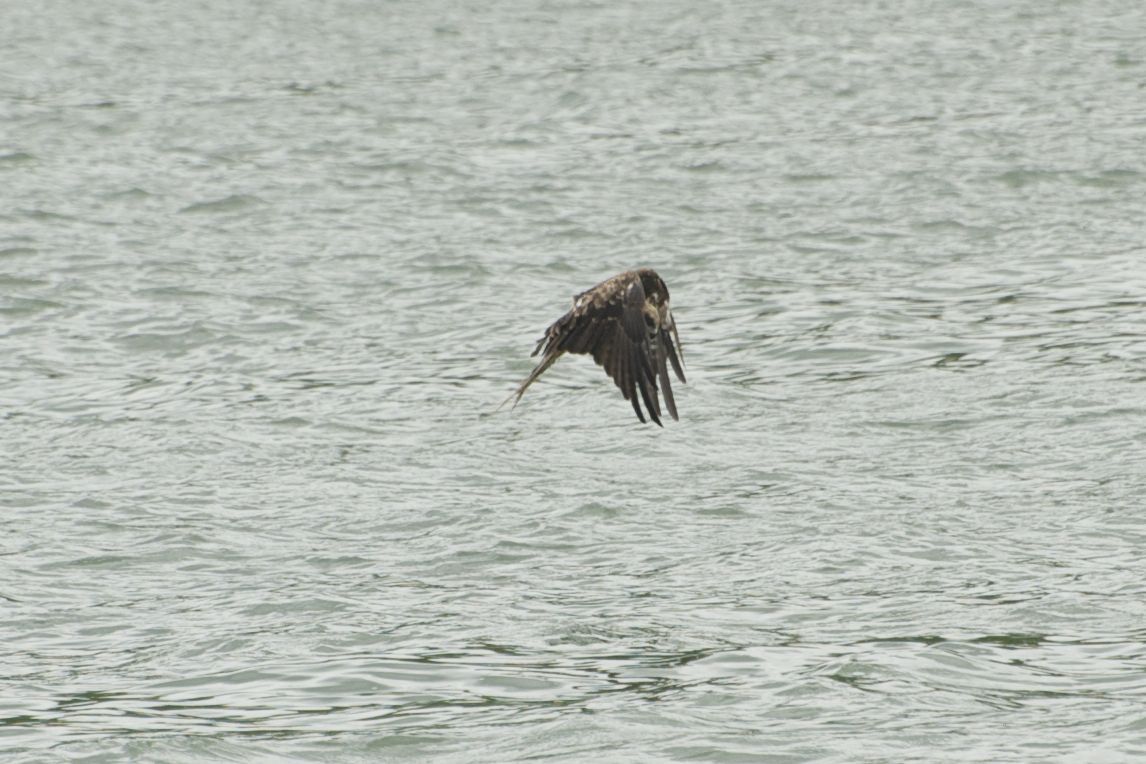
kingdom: Animalia
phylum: Chordata
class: Aves
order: Accipitriformes
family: Accipitridae
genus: Milvus
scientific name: Milvus migrans
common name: Black kite
